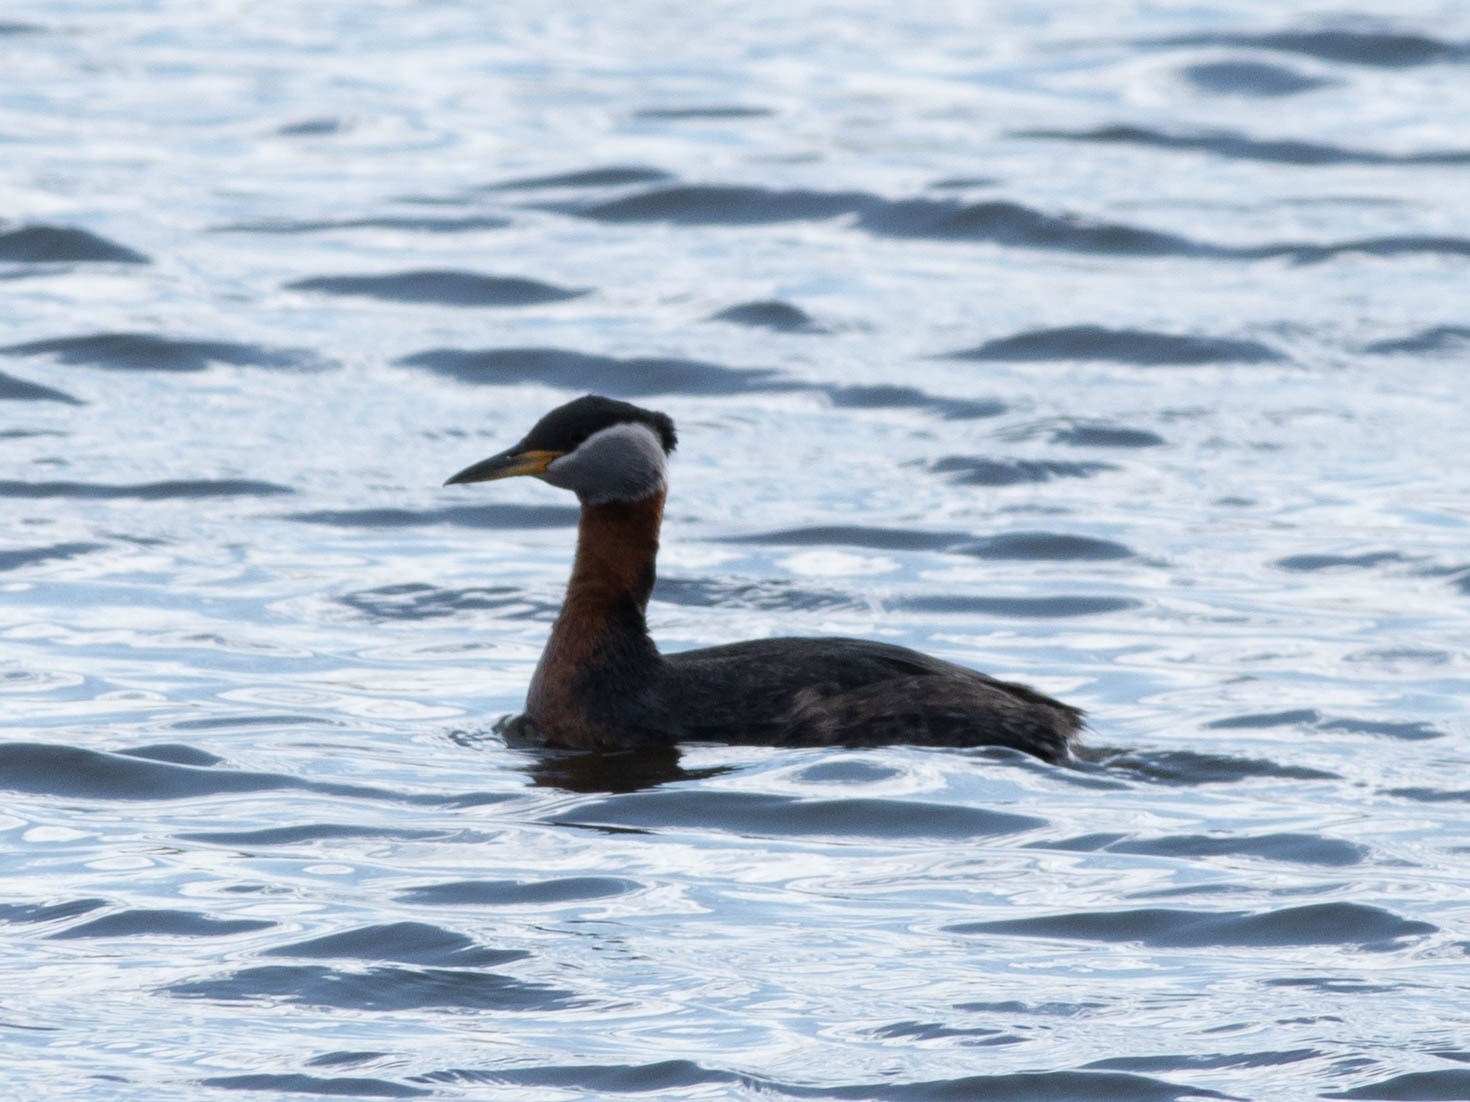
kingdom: Animalia
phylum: Chordata
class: Aves
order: Podicipediformes
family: Podicipedidae
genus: Podiceps
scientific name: Podiceps grisegena
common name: Red-necked grebe
